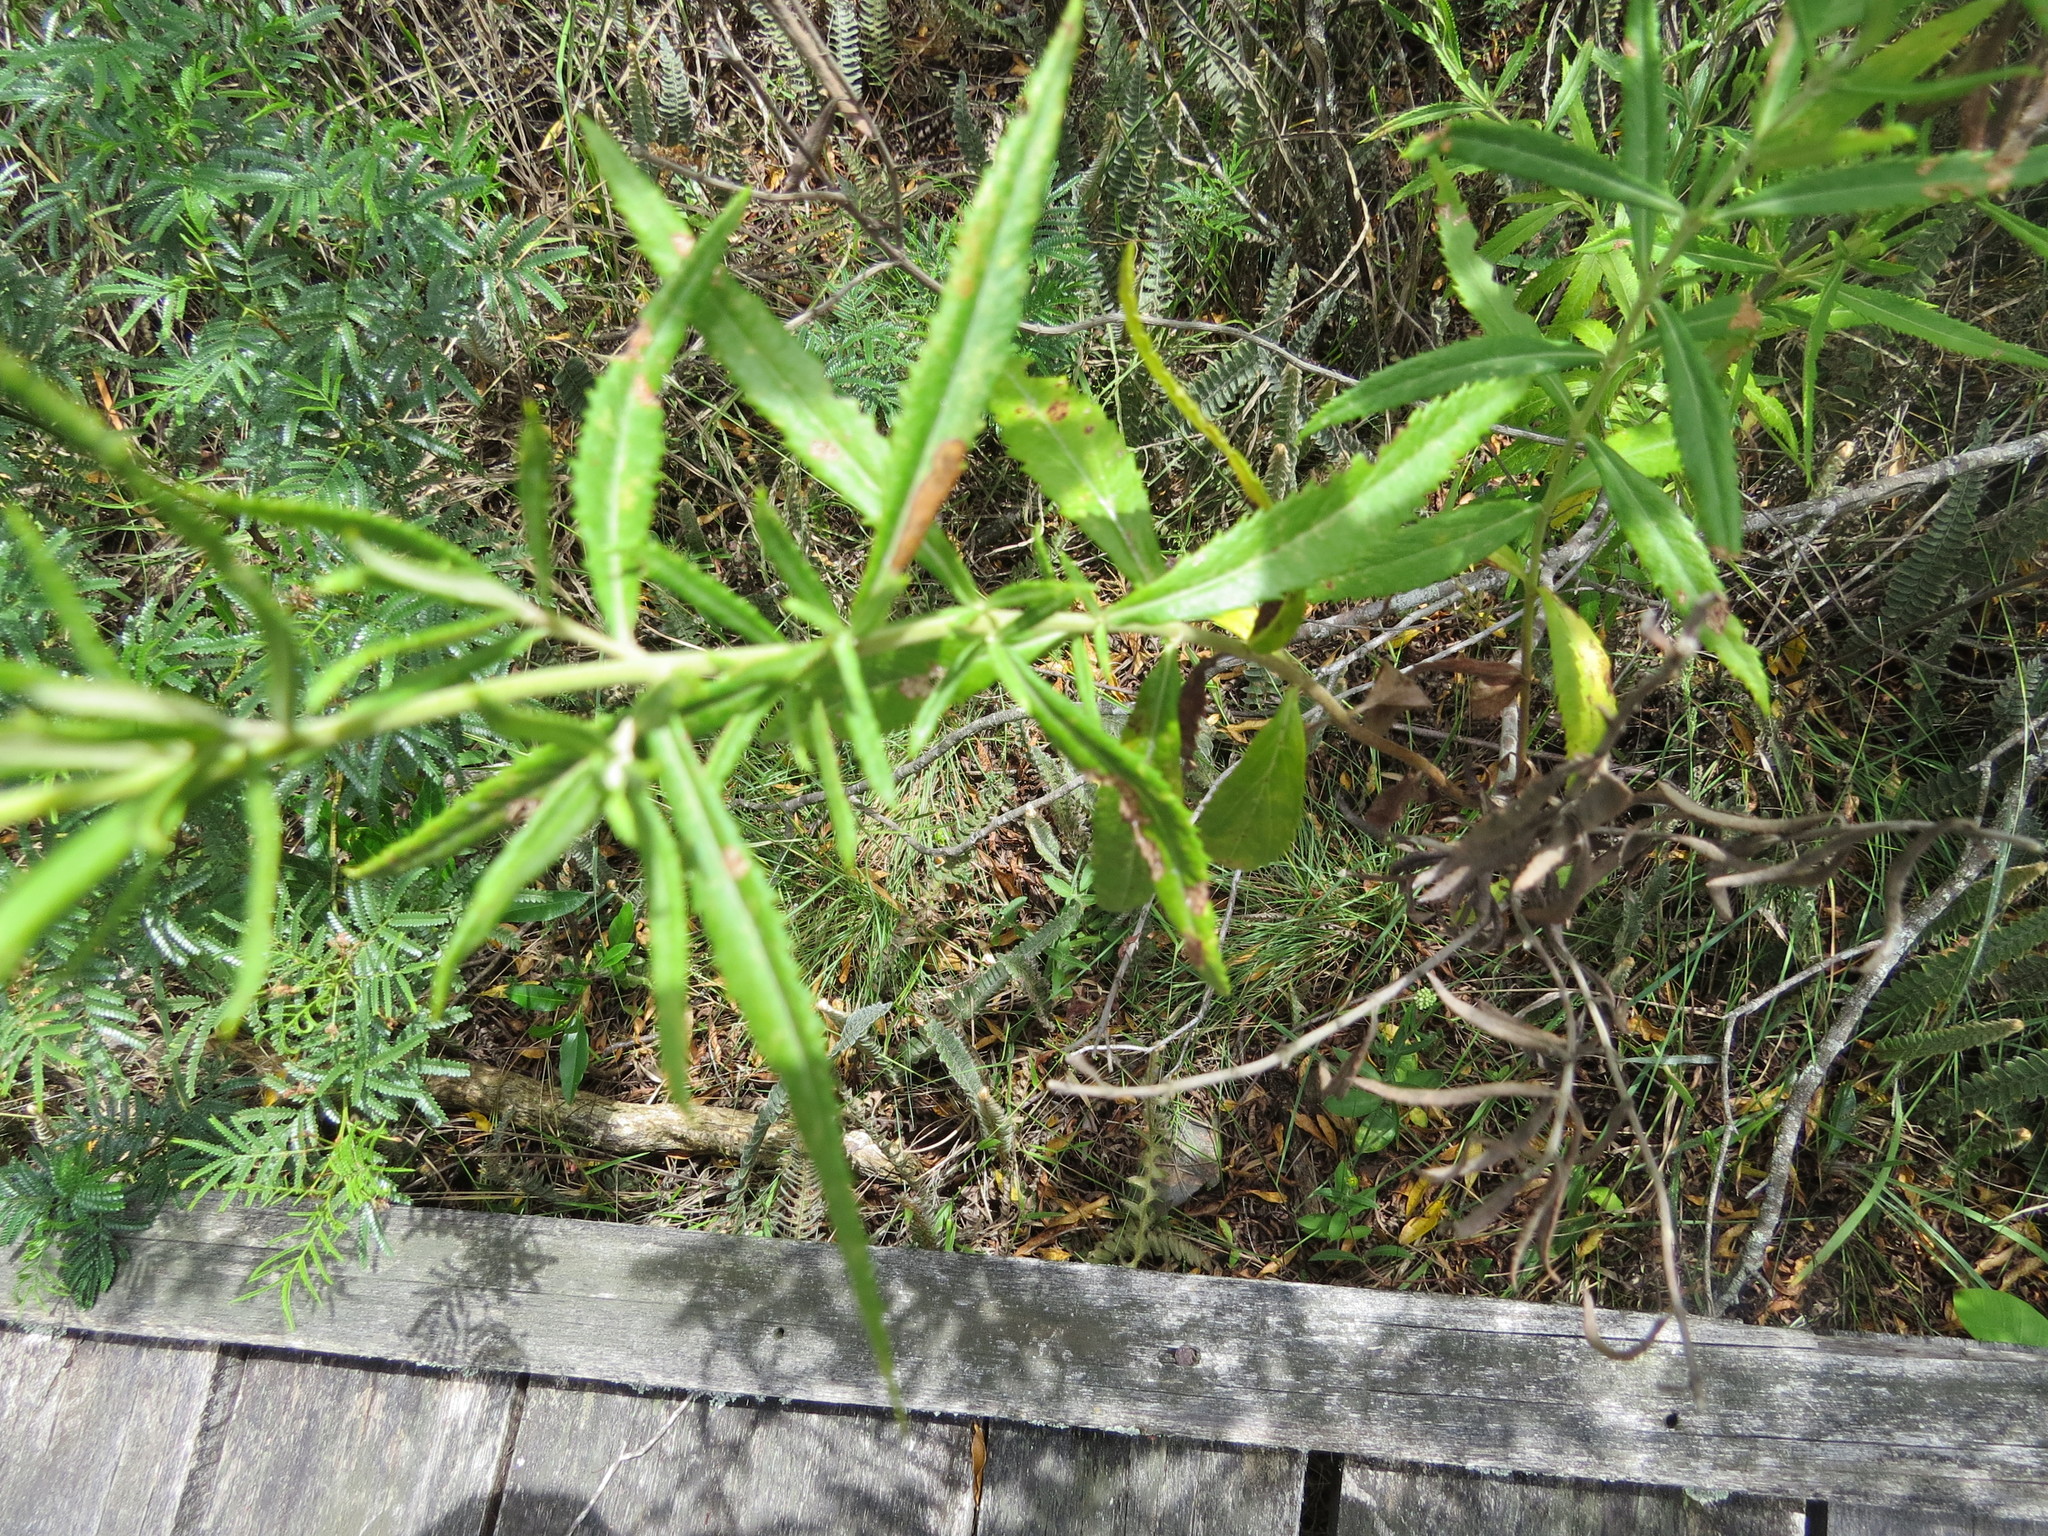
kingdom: Plantae
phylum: Tracheophyta
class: Magnoliopsida
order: Asterales
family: Asteraceae
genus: Grazielia
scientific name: Grazielia serrata
